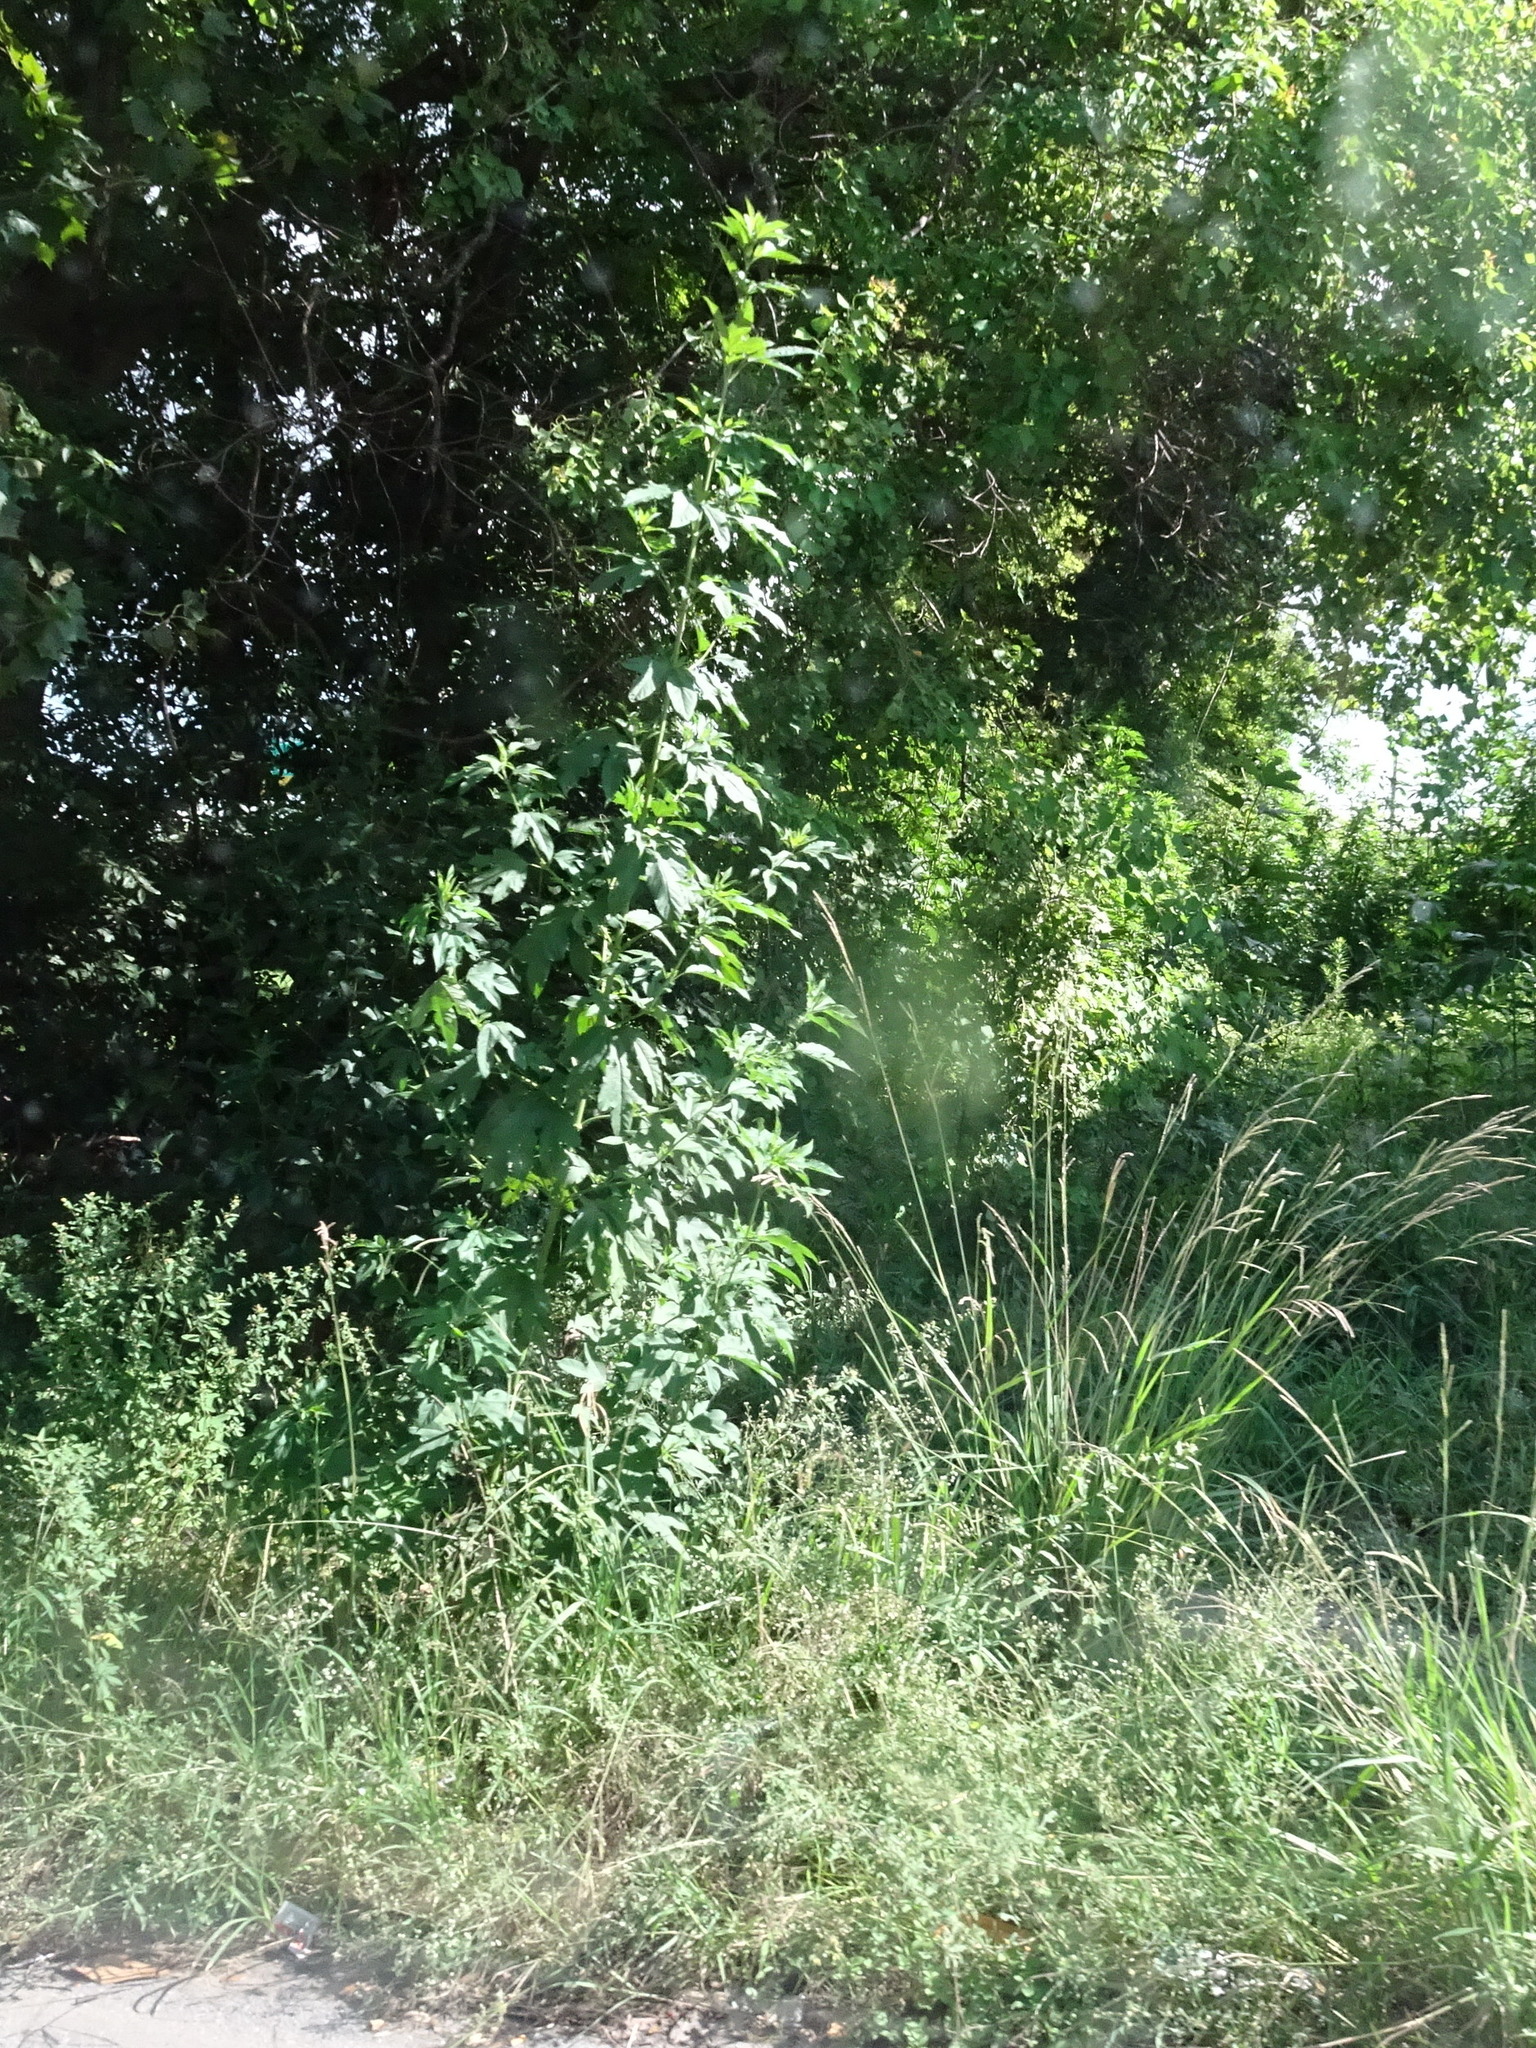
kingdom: Plantae
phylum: Tracheophyta
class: Magnoliopsida
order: Asterales
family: Asteraceae
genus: Ambrosia
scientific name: Ambrosia trifida
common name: Giant ragweed
